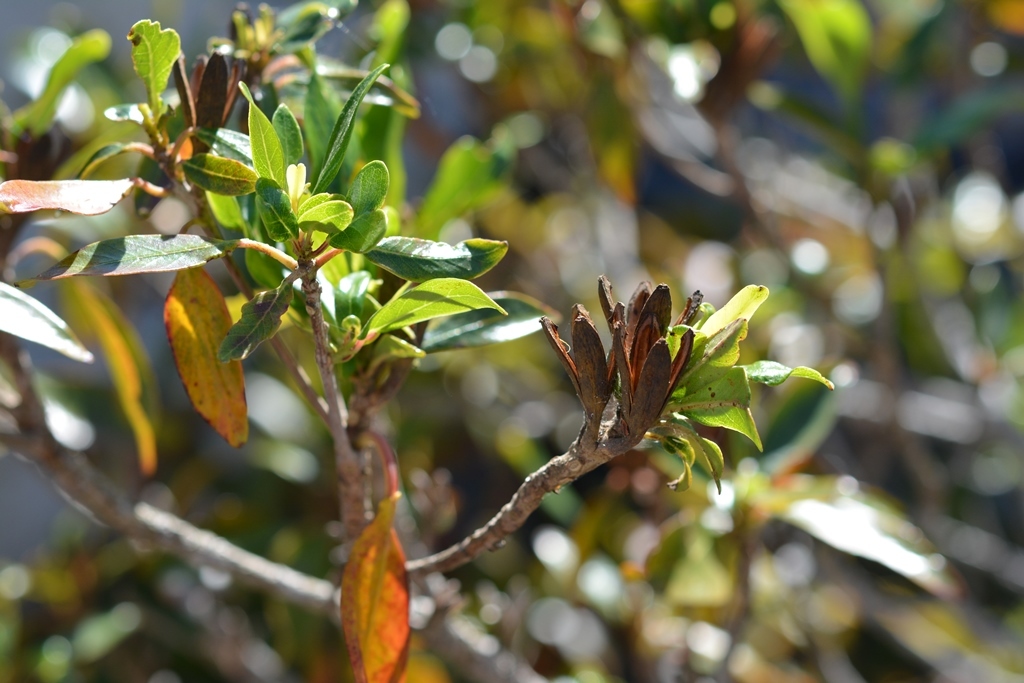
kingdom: Plantae
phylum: Tracheophyta
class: Magnoliopsida
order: Myrtales
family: Onagraceae
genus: Hauya
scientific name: Hauya elegans
